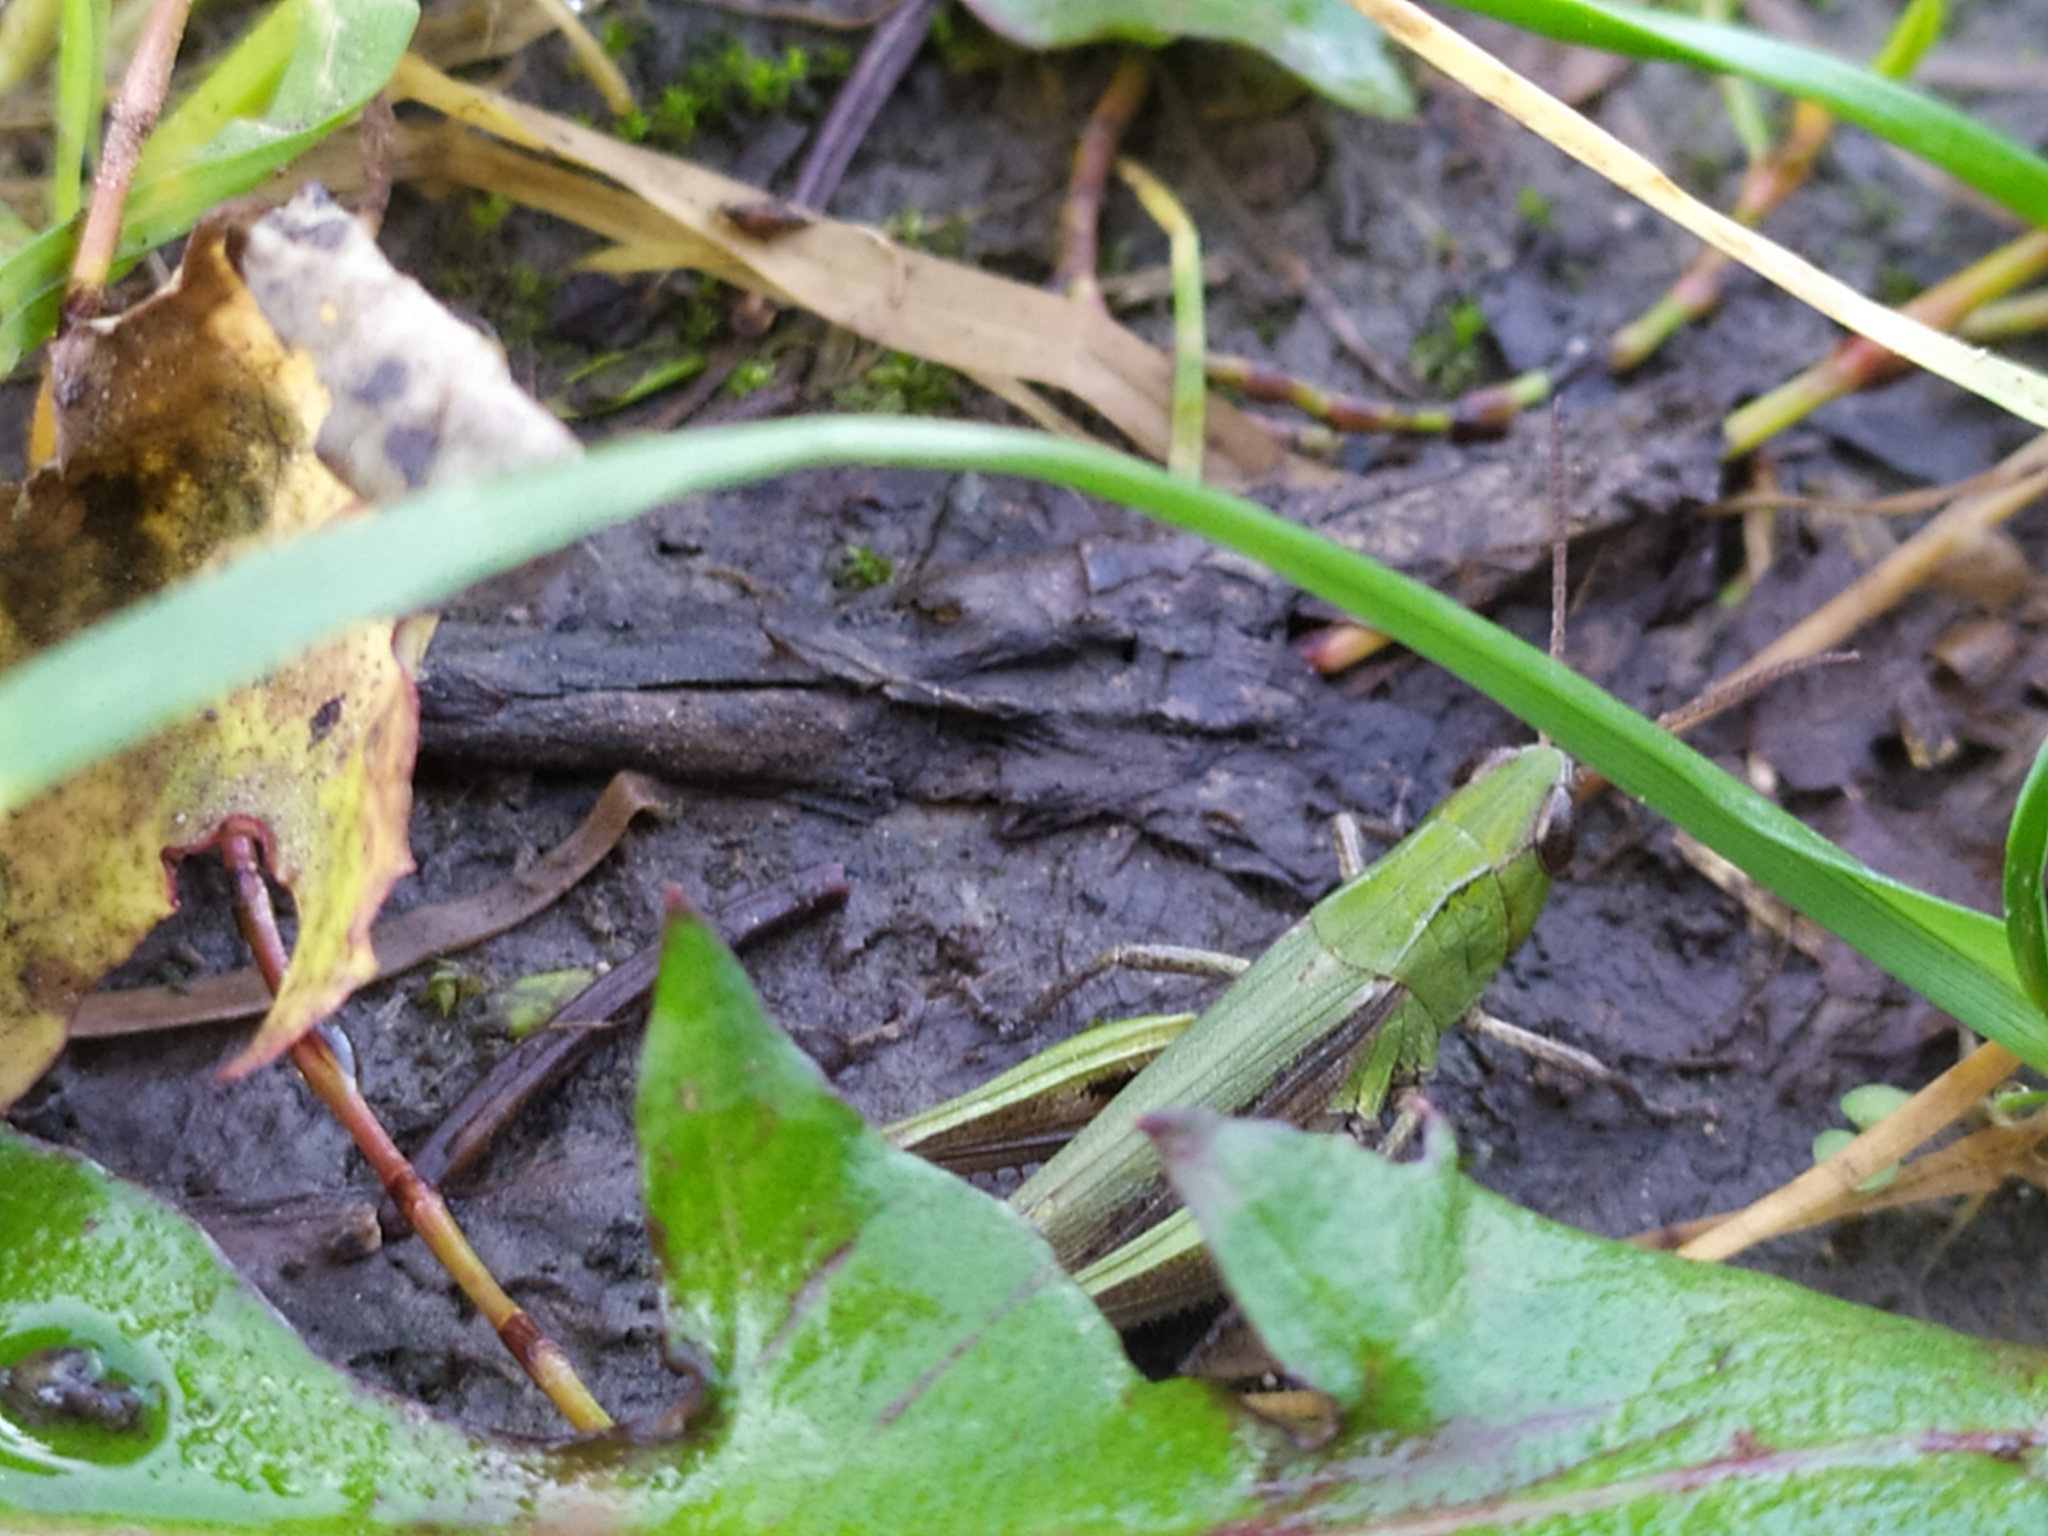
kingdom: Animalia
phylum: Arthropoda
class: Insecta
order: Orthoptera
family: Acrididae
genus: Chorthippus
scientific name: Chorthippus dorsatus
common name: Steppe grasshopper
